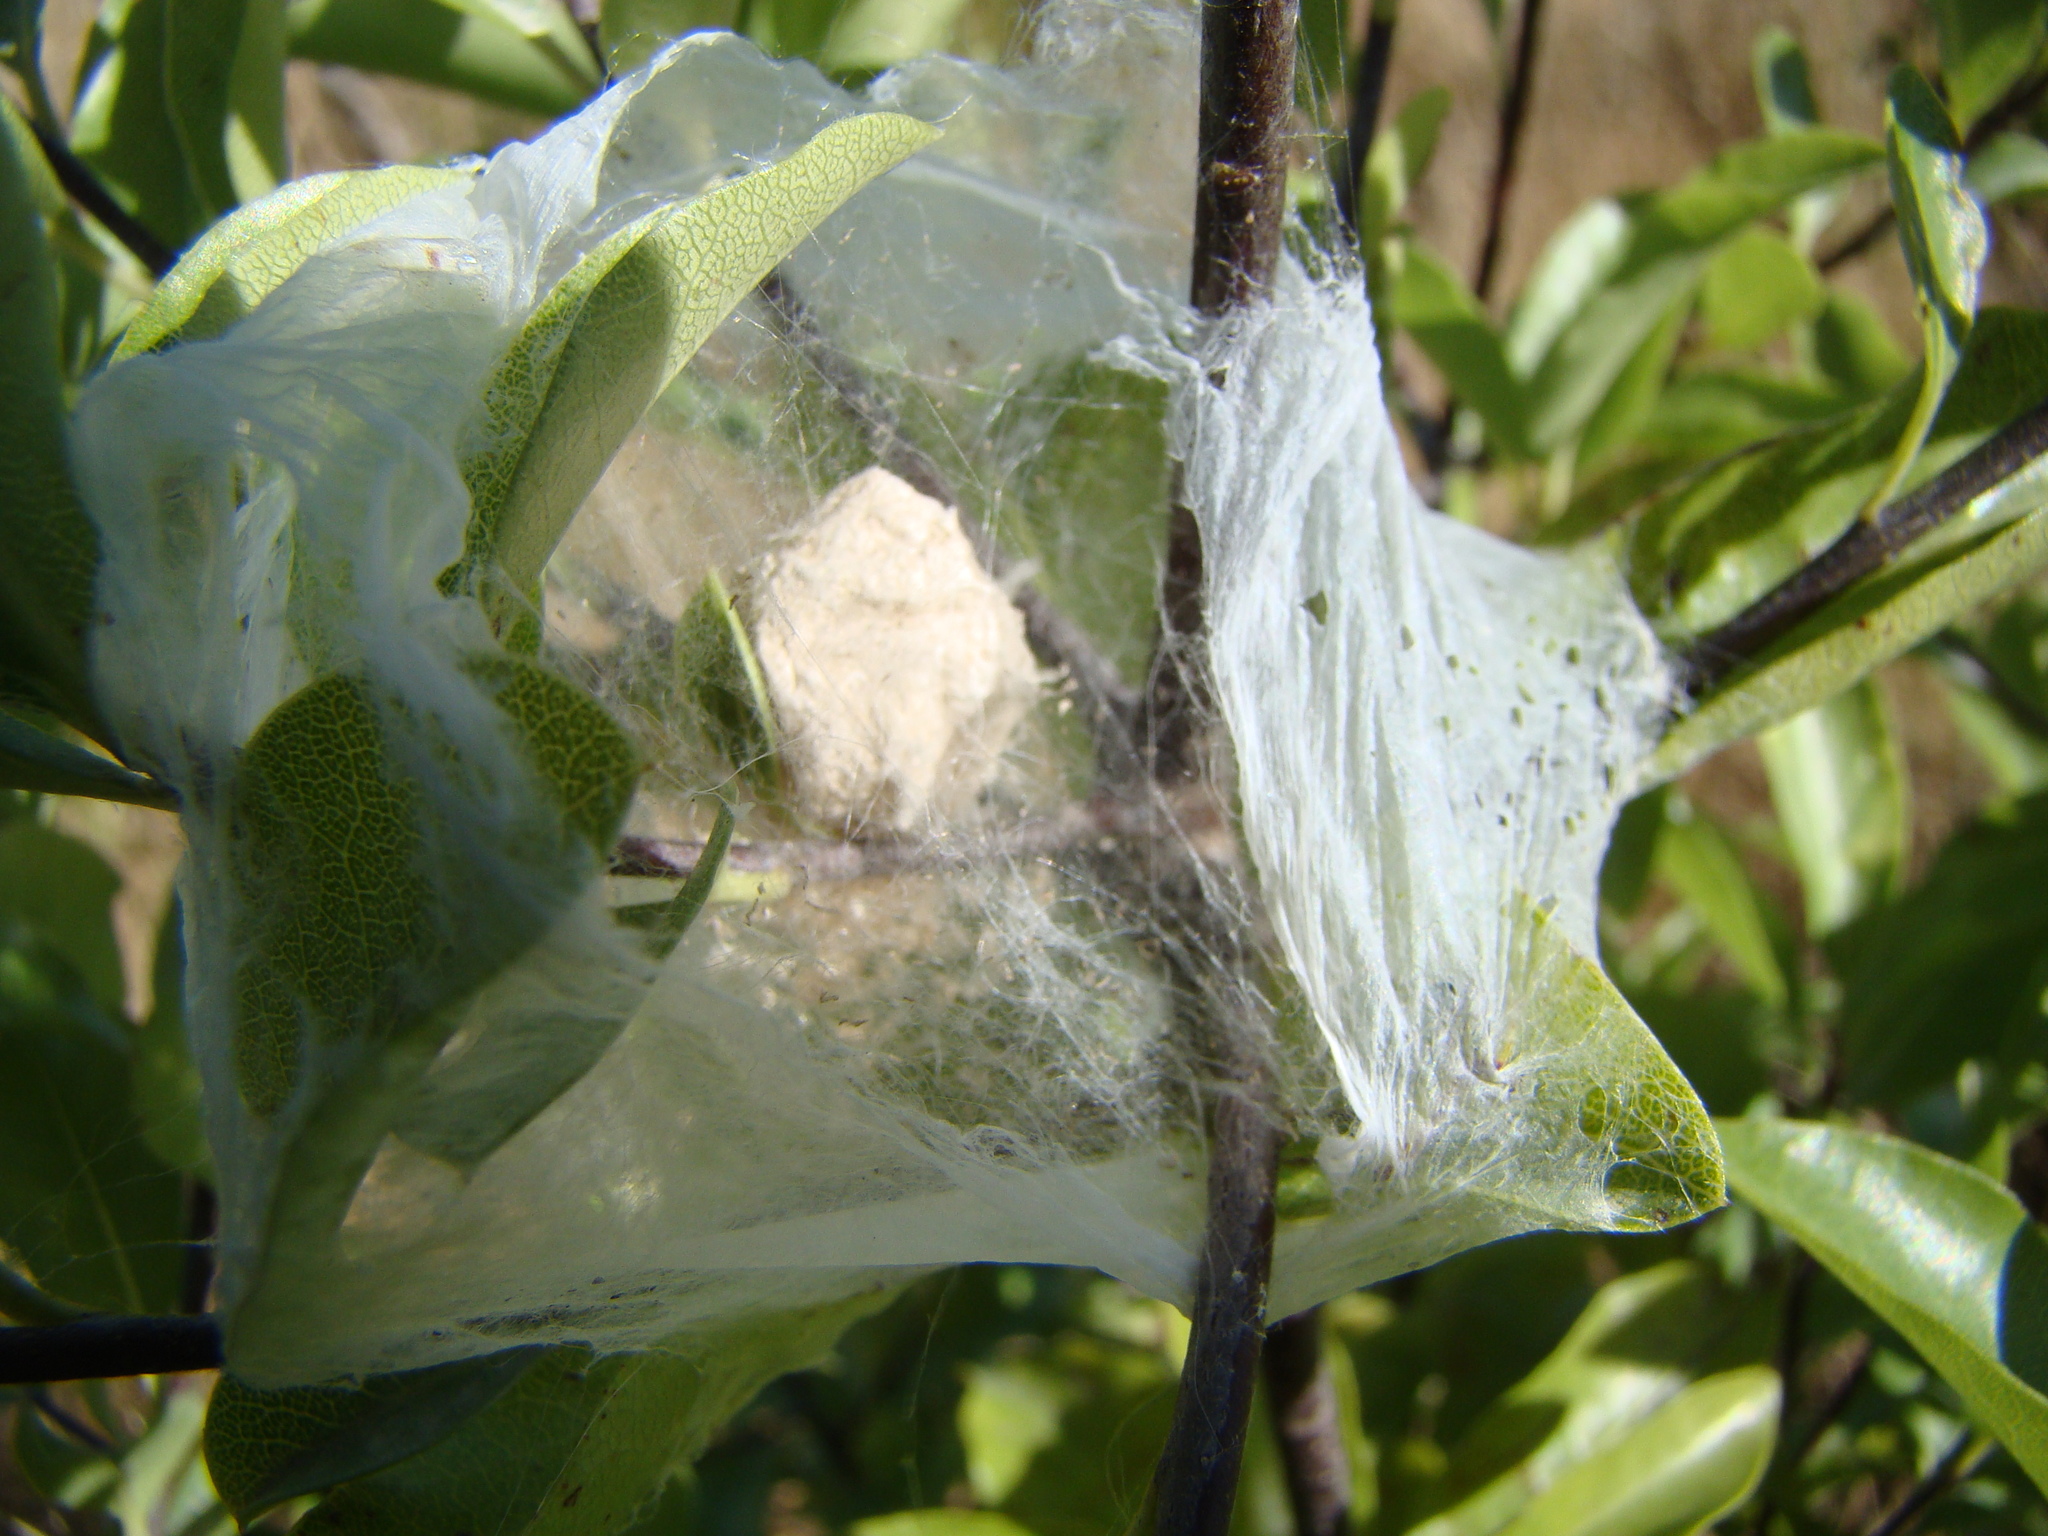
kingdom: Animalia
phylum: Arthropoda
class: Arachnida
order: Araneae
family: Pisauridae
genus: Dolomedes
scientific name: Dolomedes minor
